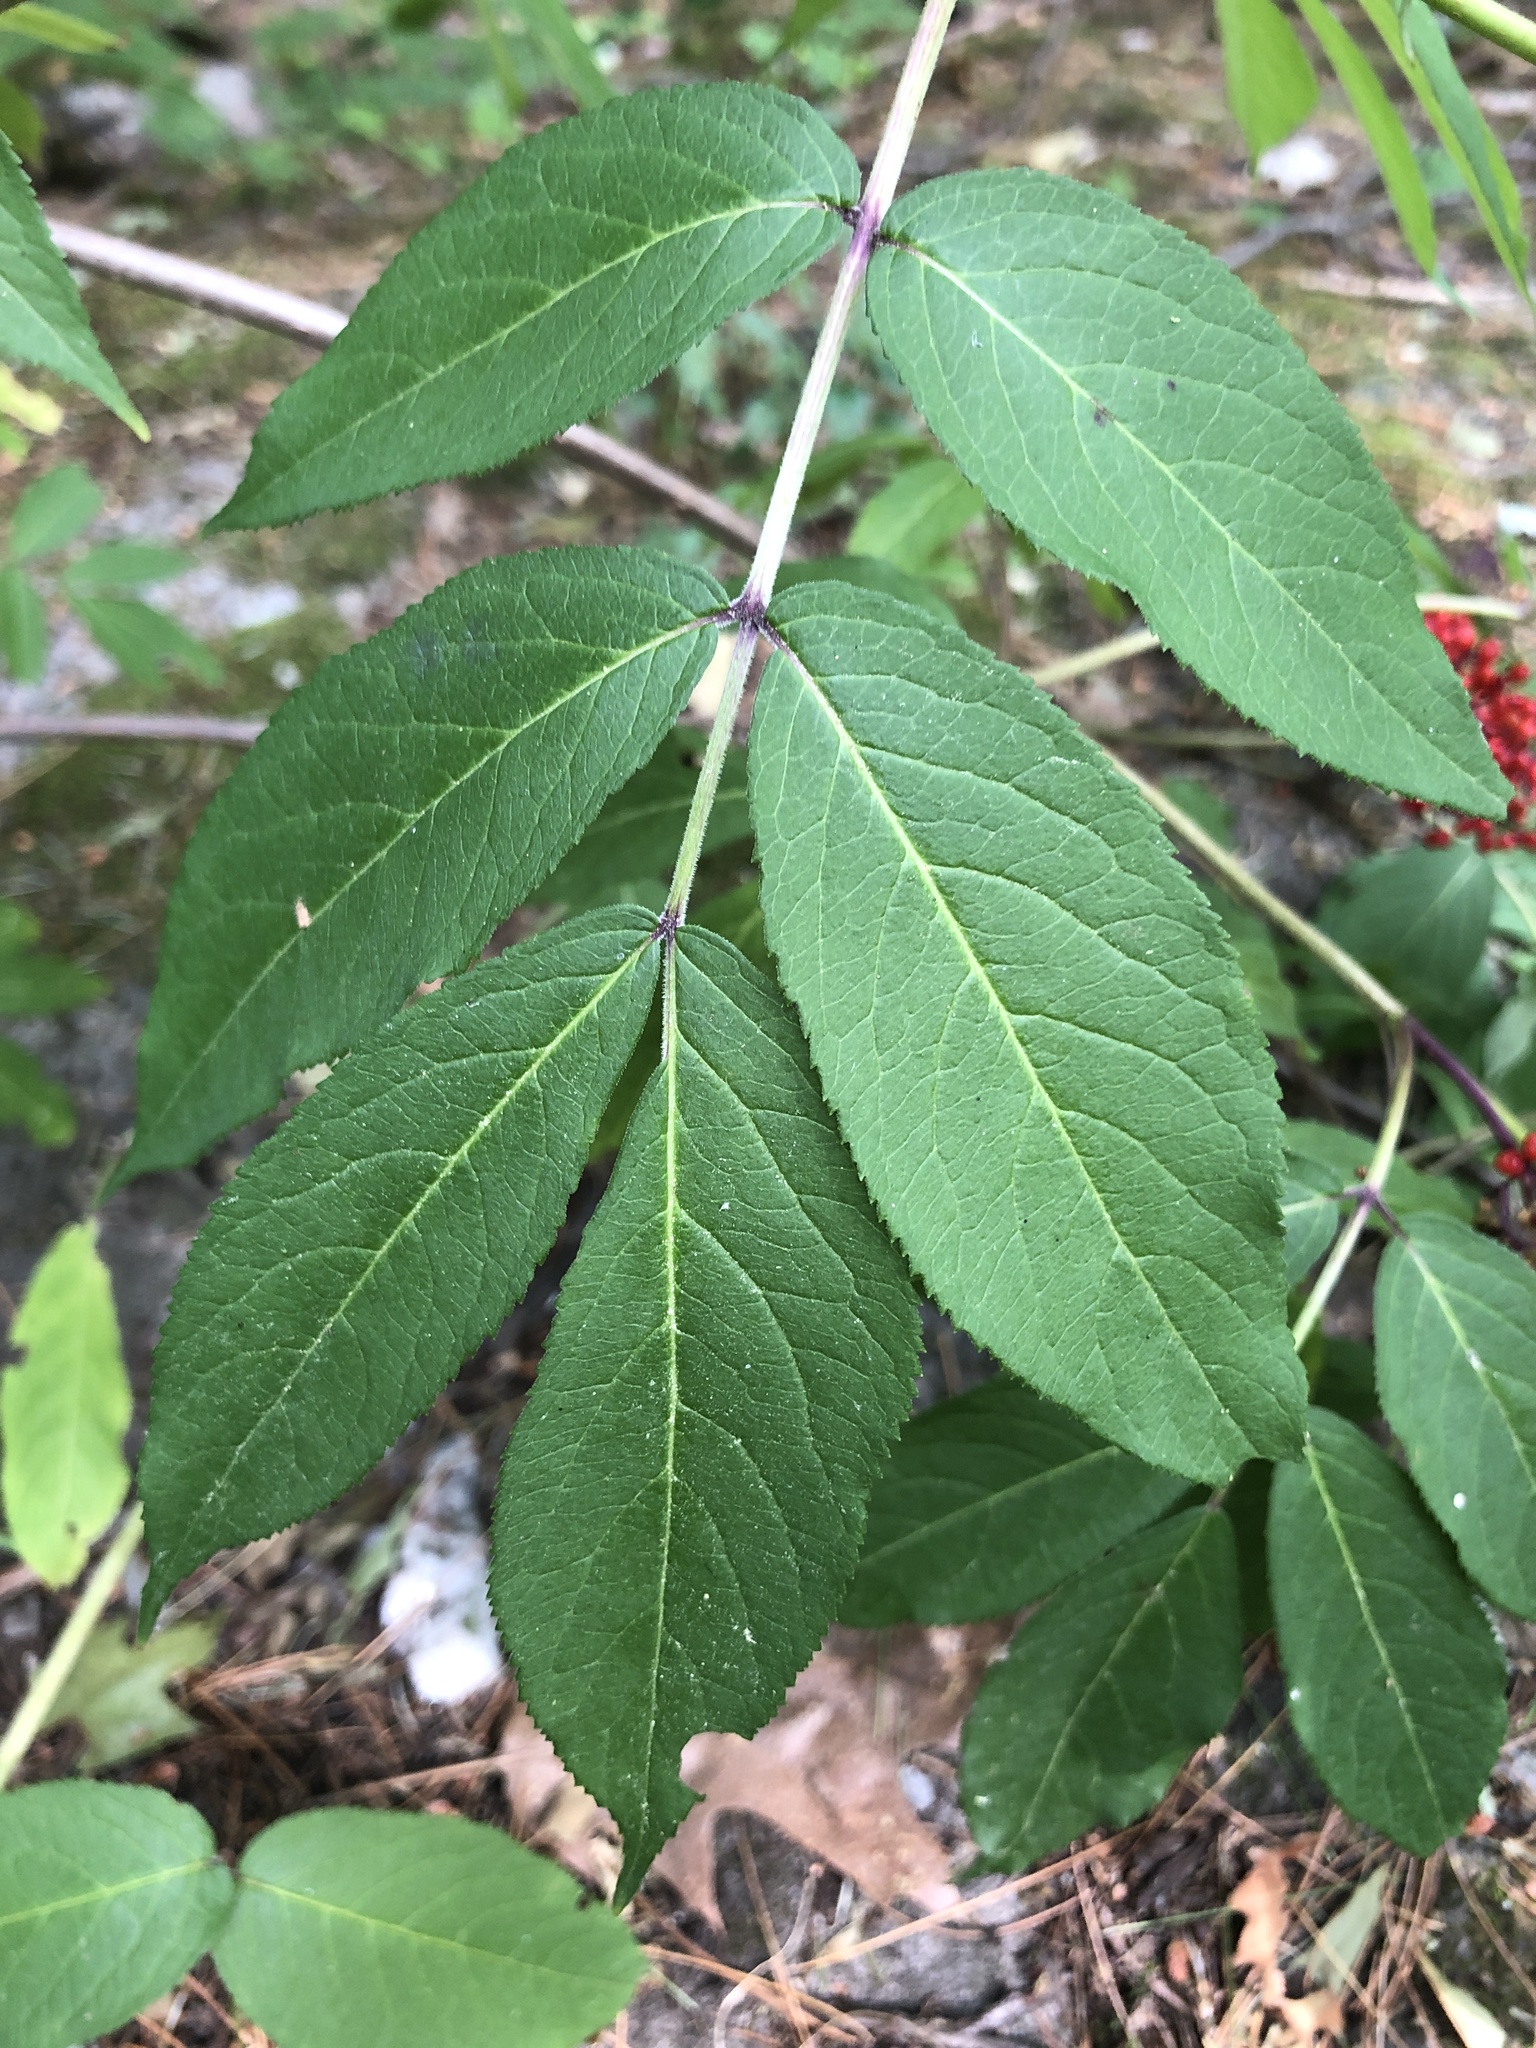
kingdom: Plantae
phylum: Tracheophyta
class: Magnoliopsida
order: Dipsacales
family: Viburnaceae
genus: Sambucus
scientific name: Sambucus racemosa
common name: Red-berried elder
